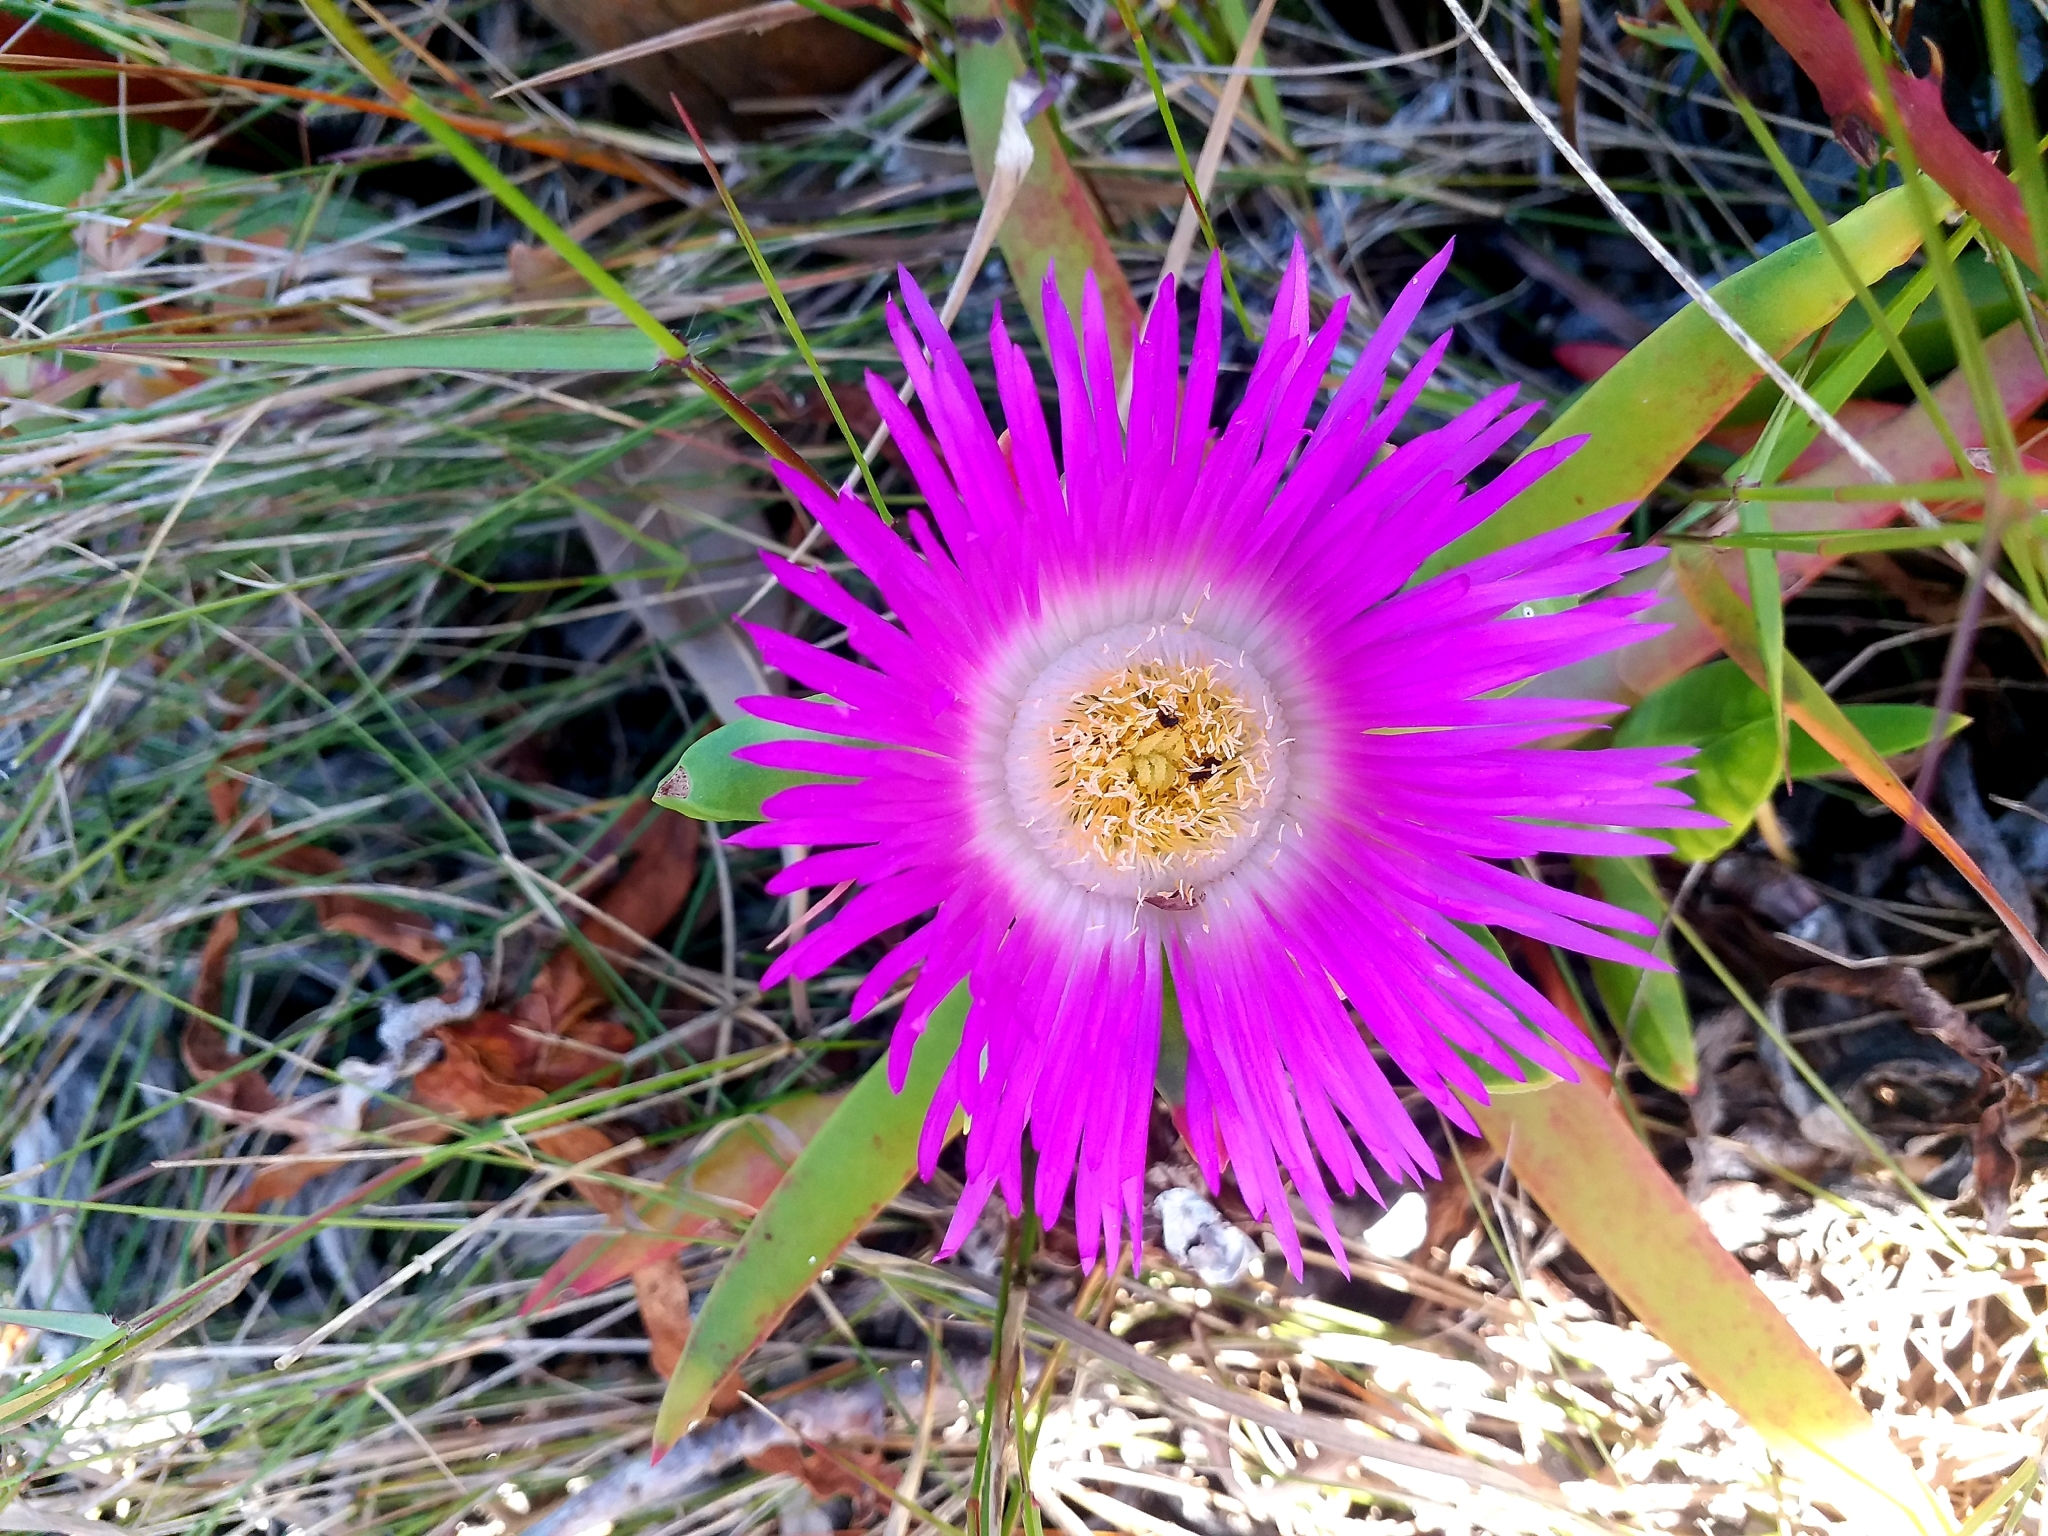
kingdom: Plantae
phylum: Tracheophyta
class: Magnoliopsida
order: Caryophyllales
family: Aizoaceae
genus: Carpobrotus
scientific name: Carpobrotus deliciosus
